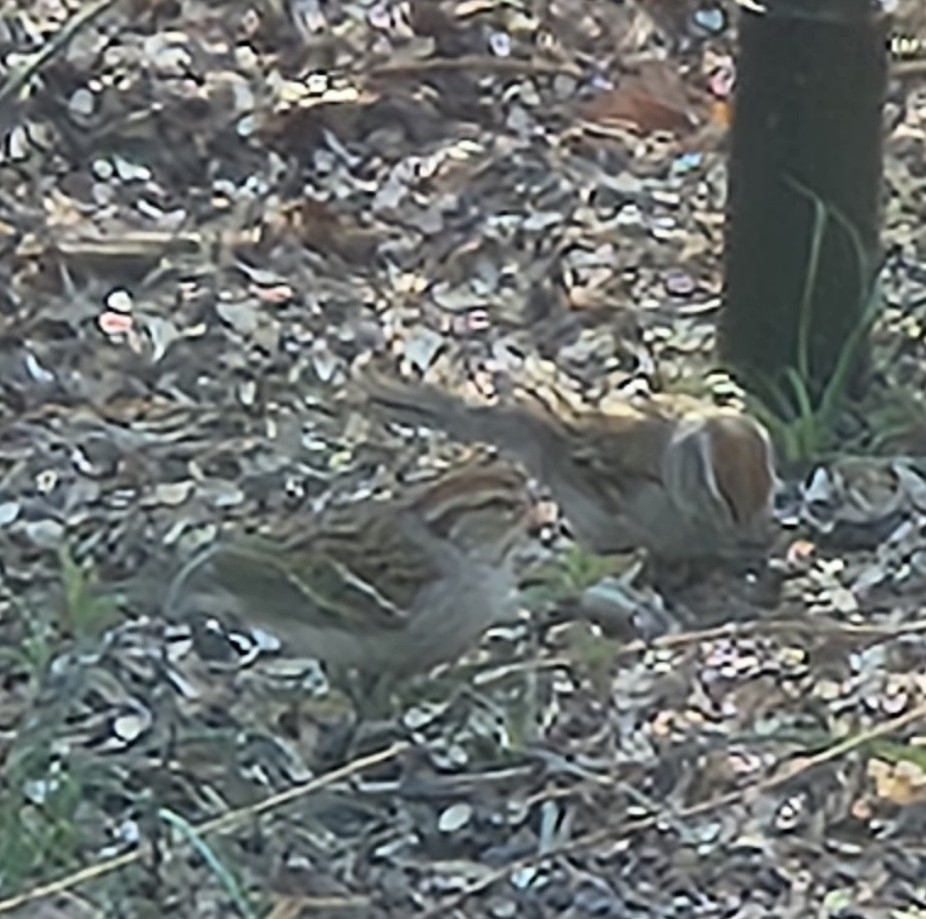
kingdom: Animalia
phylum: Chordata
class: Aves
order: Passeriformes
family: Passerellidae
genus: Spizella
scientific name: Spizella passerina
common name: Chipping sparrow
